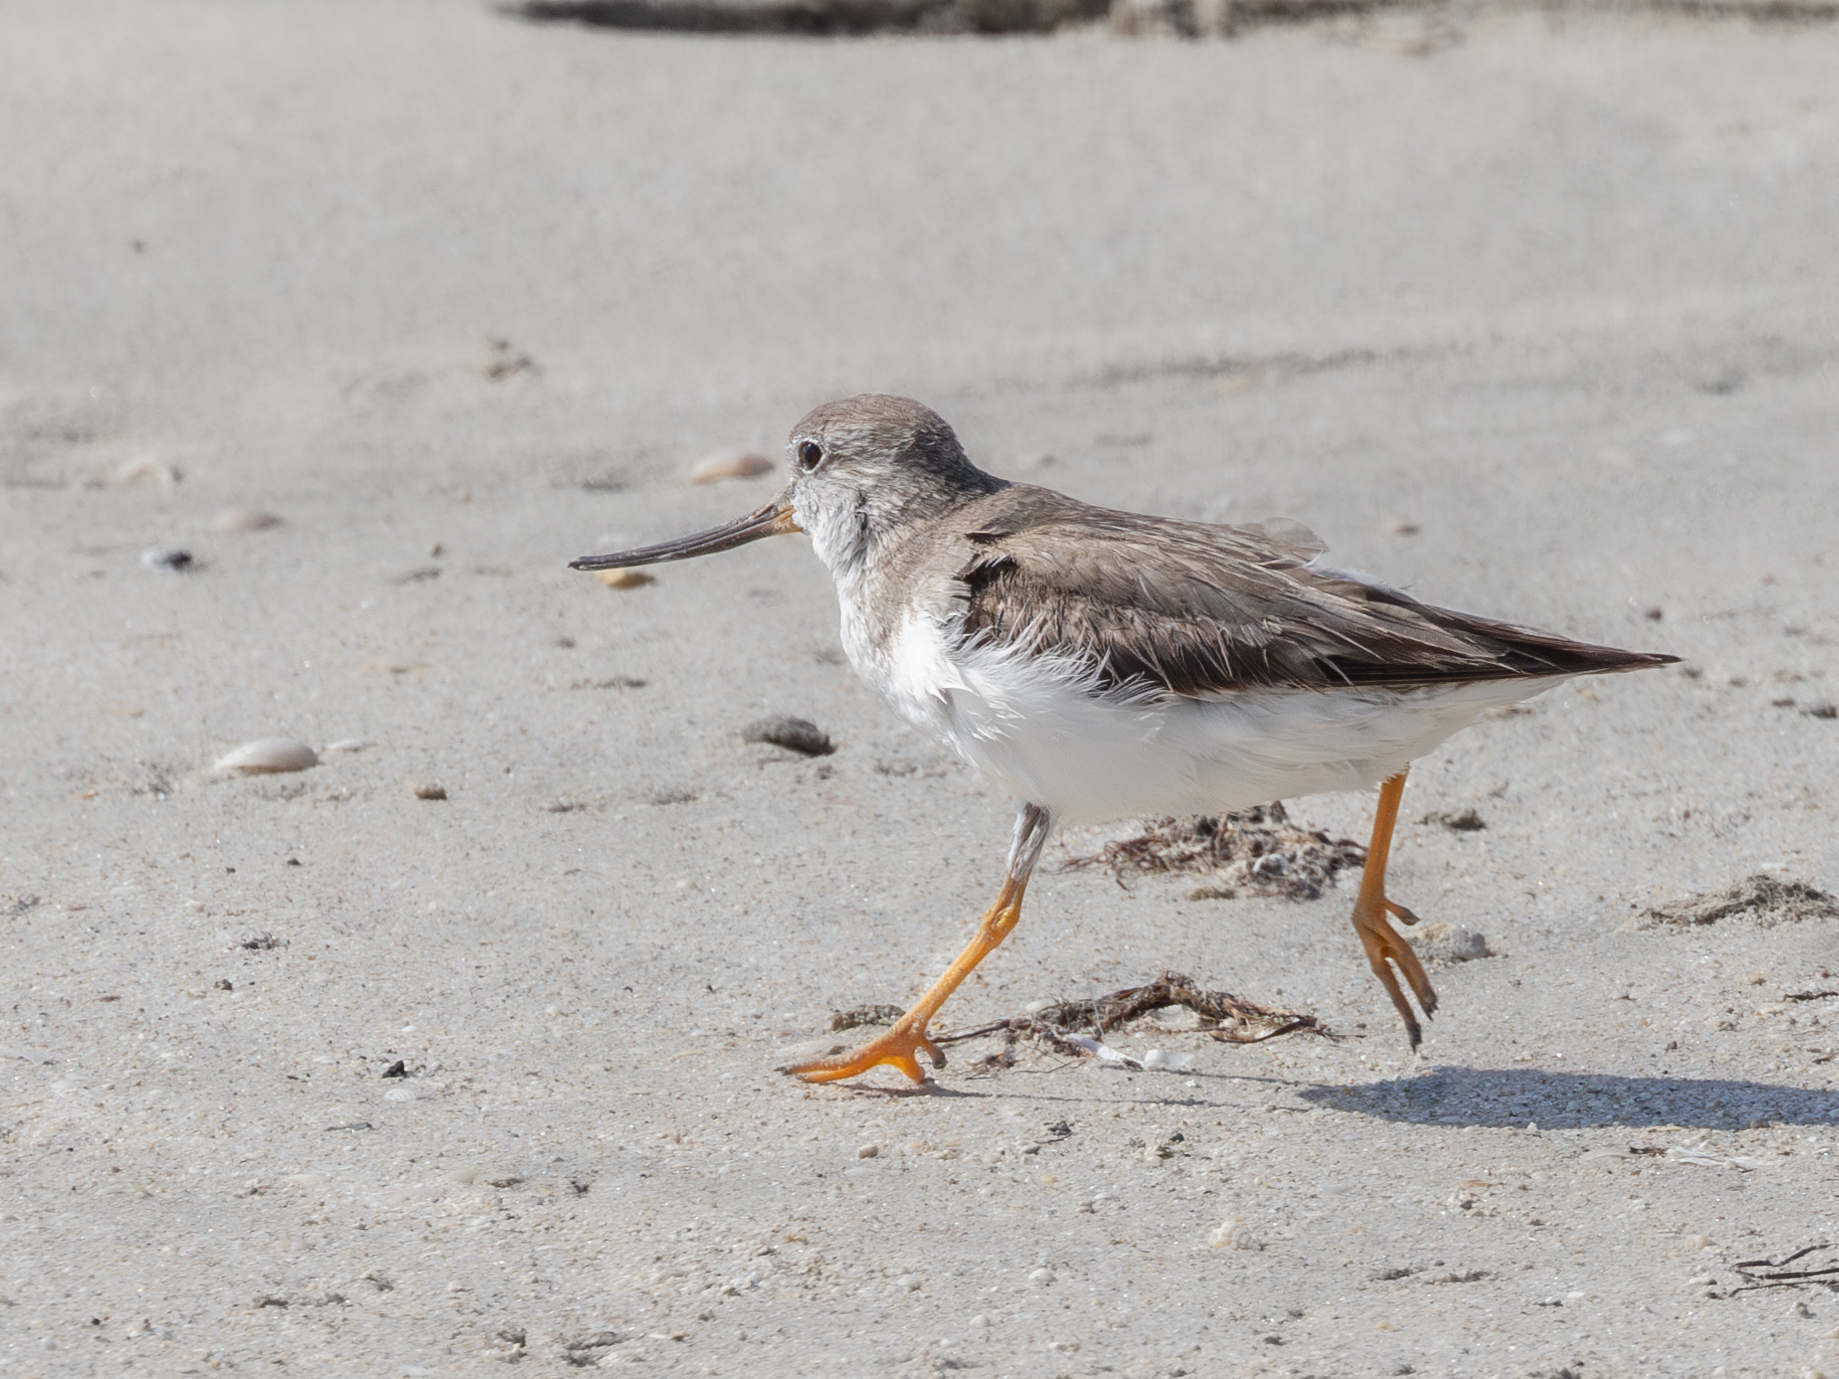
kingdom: Animalia
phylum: Chordata
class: Aves
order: Charadriiformes
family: Scolopacidae
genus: Xenus
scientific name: Xenus cinereus
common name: Terek sandpiper
